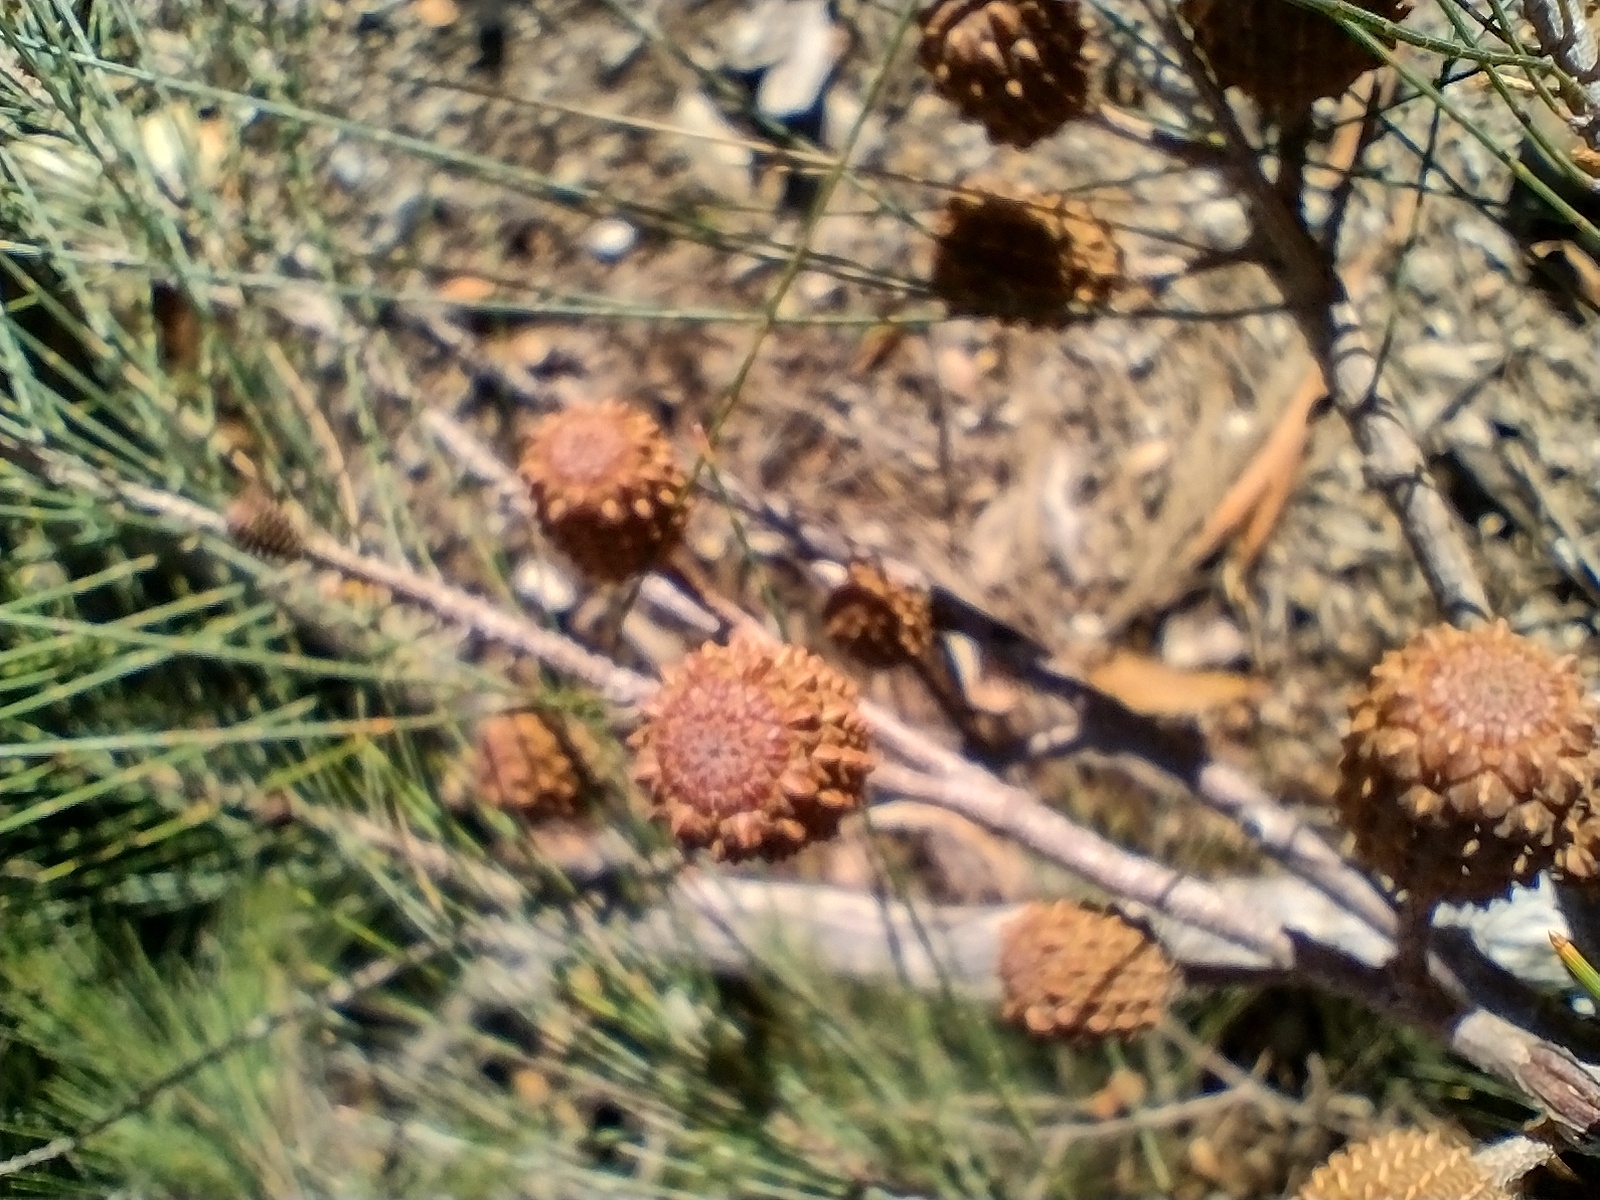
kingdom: Plantae
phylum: Tracheophyta
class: Magnoliopsida
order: Fagales
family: Casuarinaceae
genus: Allocasuarina
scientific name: Allocasuarina littoralis
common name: Black she-oak
